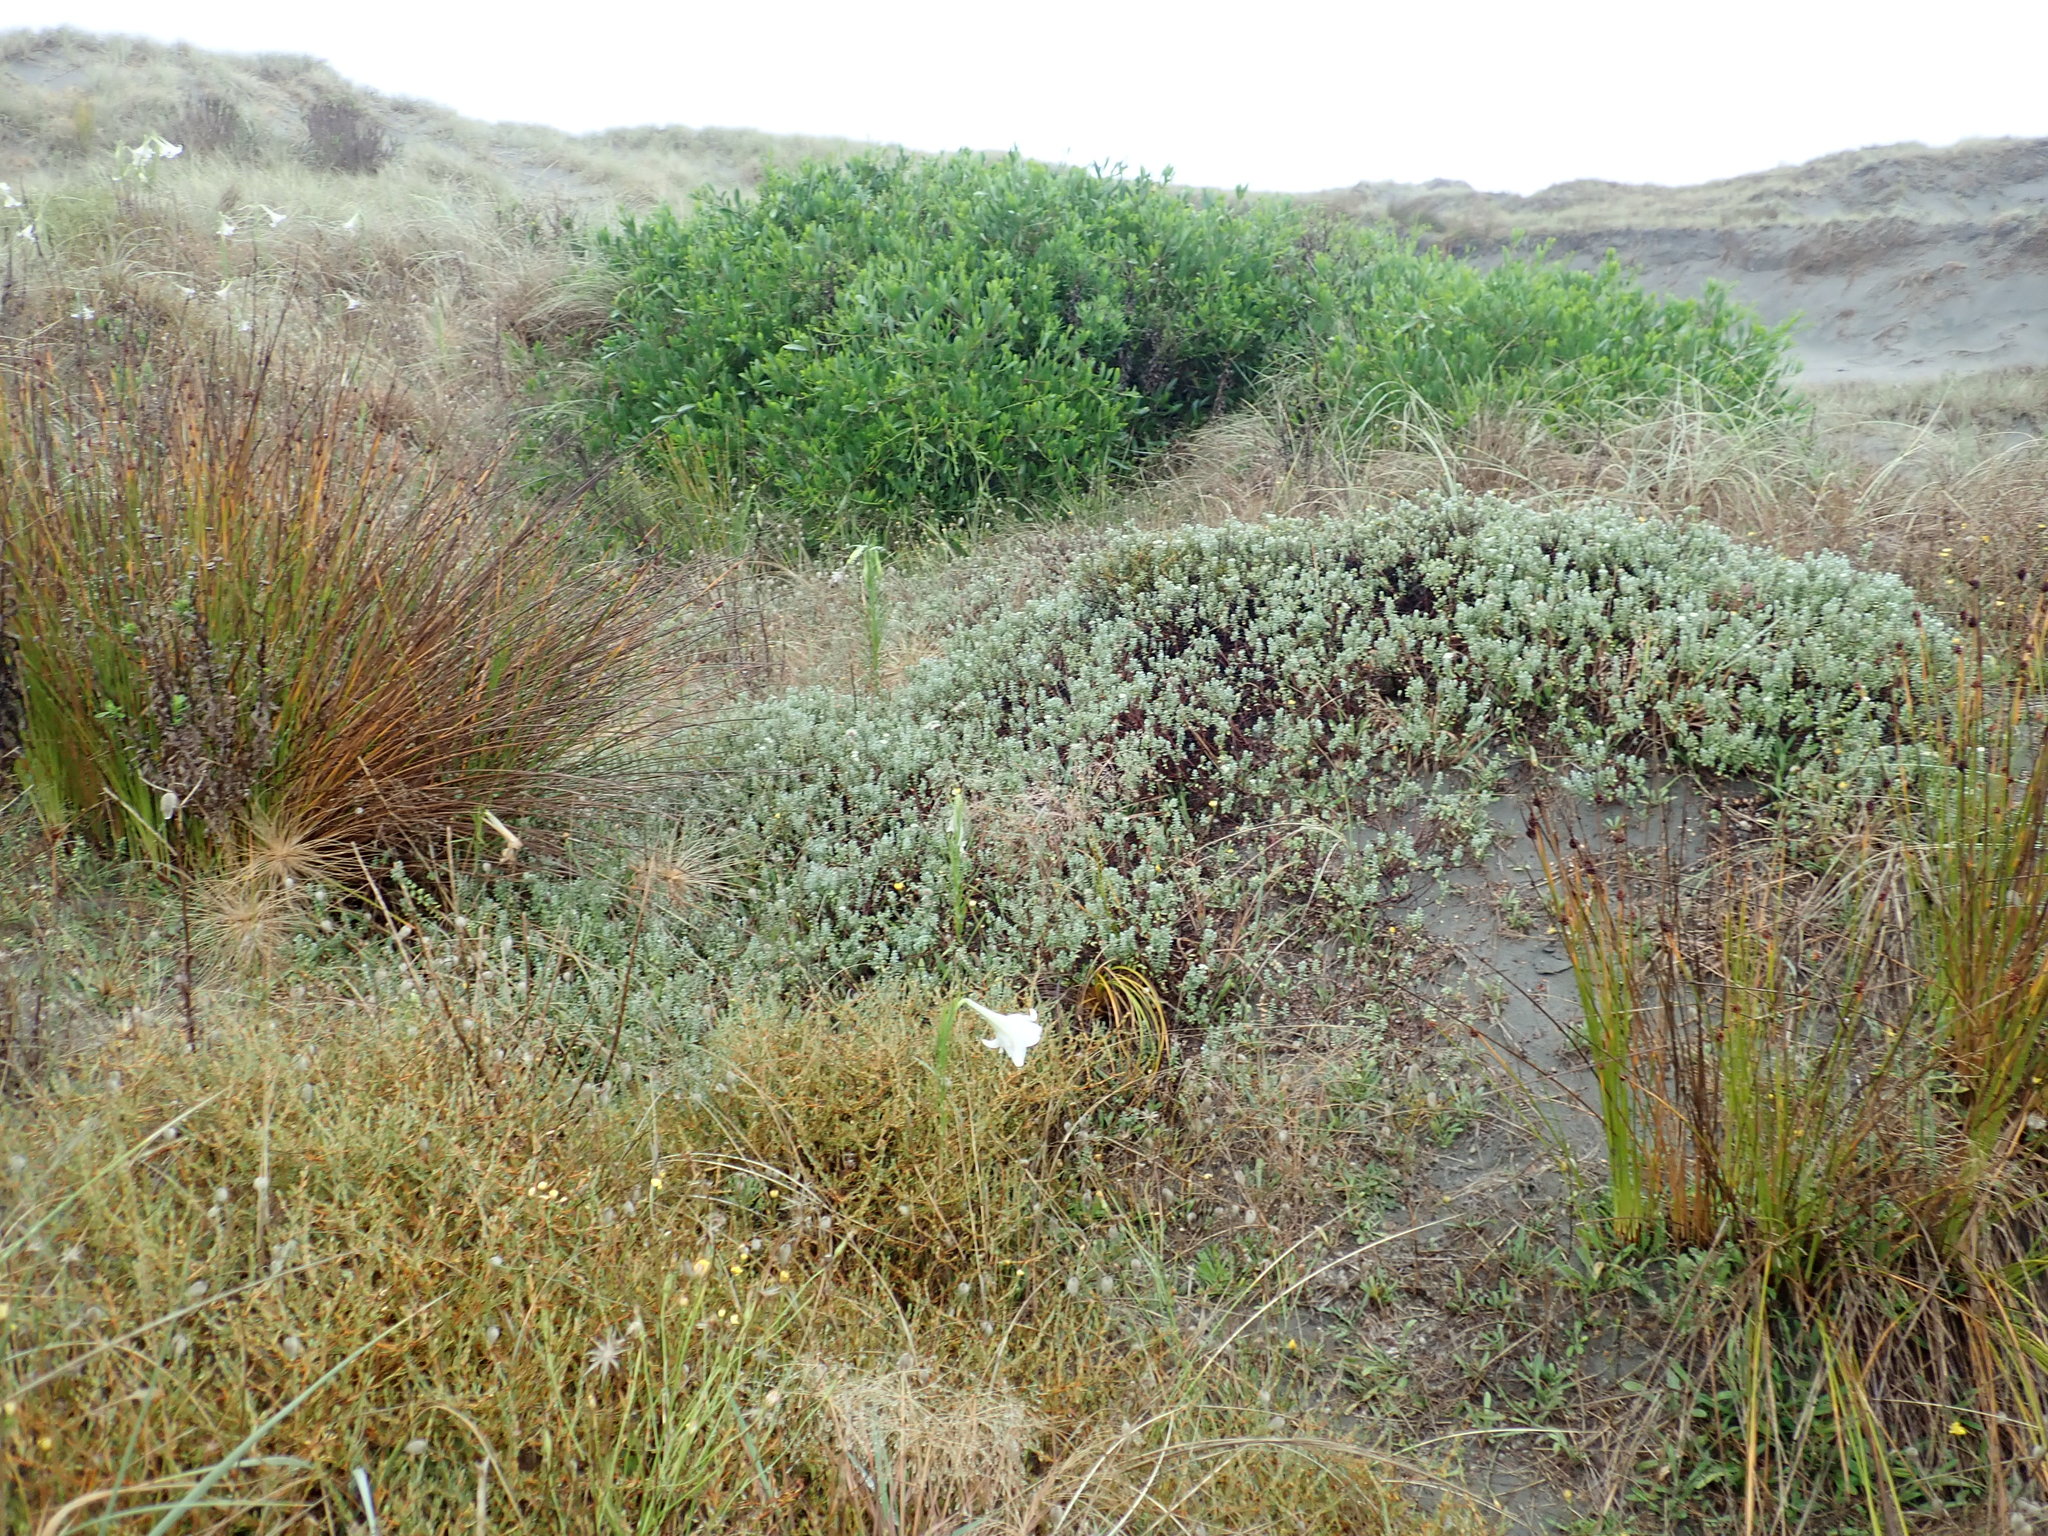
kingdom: Plantae
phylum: Tracheophyta
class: Magnoliopsida
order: Fabales
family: Fabaceae
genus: Acacia
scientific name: Acacia longifolia
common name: Sydney golden wattle
